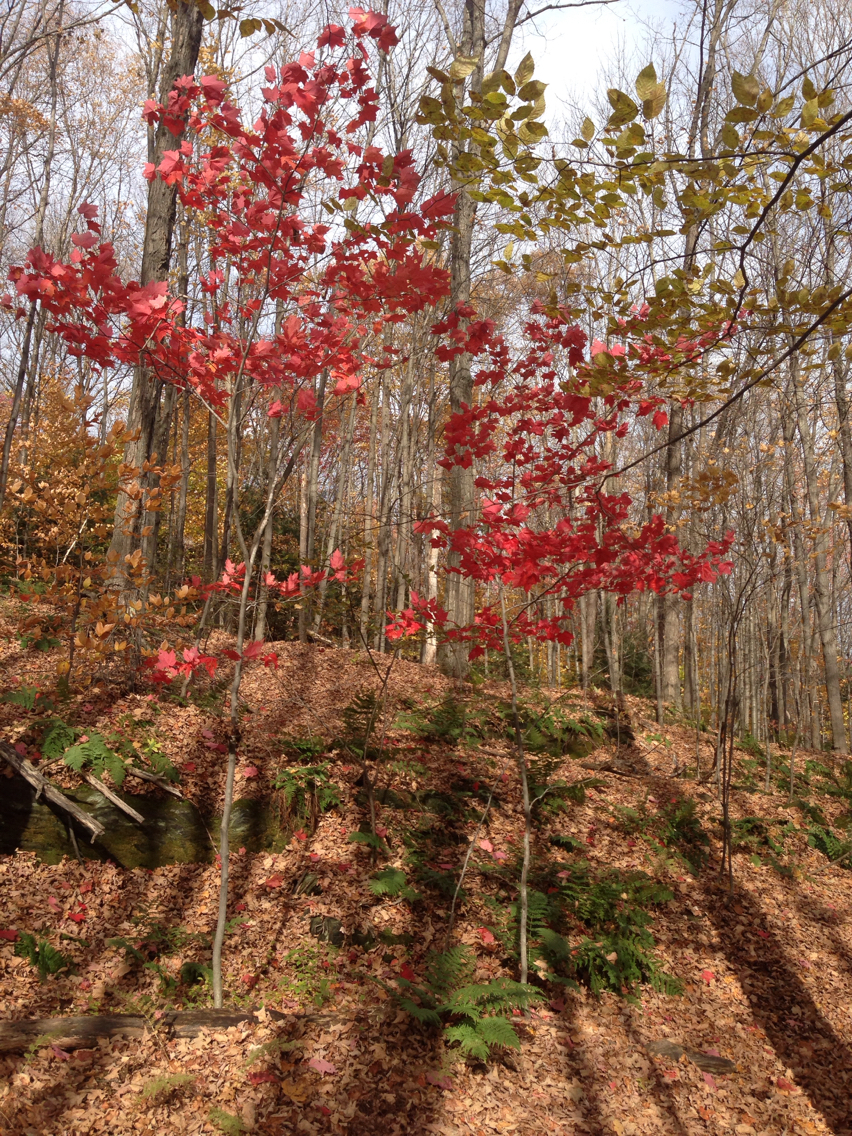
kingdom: Plantae
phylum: Tracheophyta
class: Magnoliopsida
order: Sapindales
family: Sapindaceae
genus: Acer
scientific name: Acer rubrum
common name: Red maple
